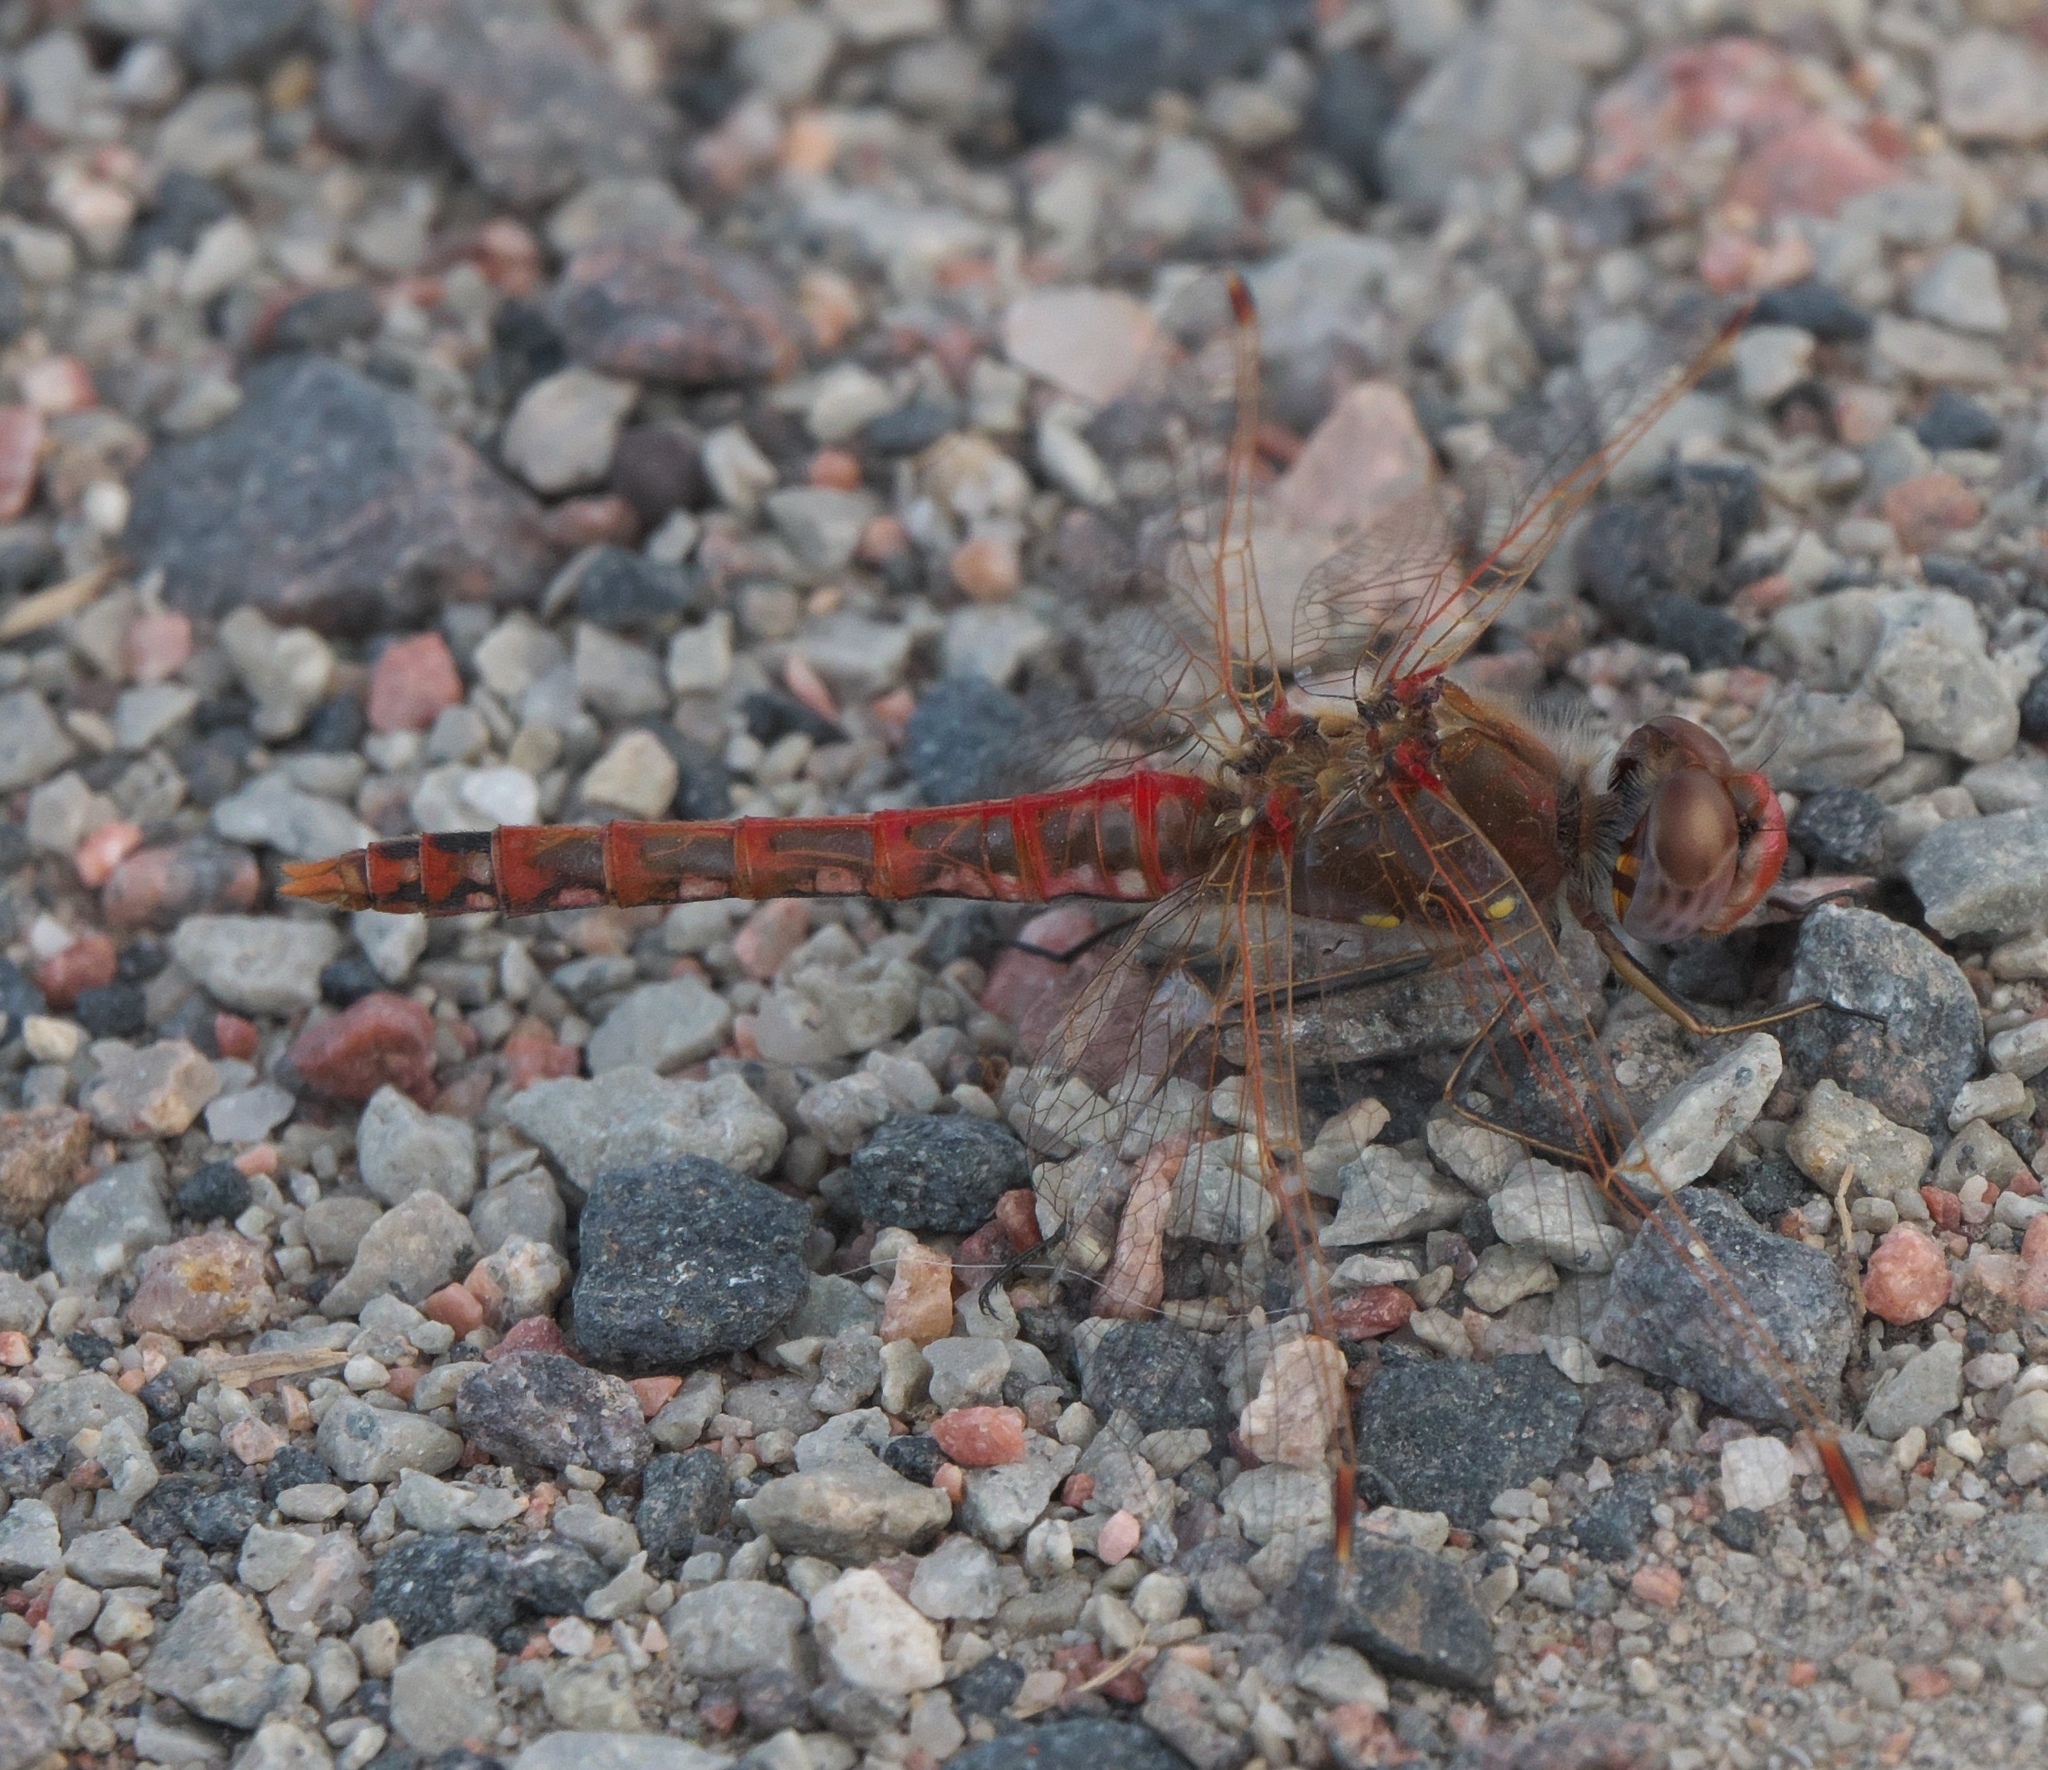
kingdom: Animalia
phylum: Arthropoda
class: Insecta
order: Odonata
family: Libellulidae
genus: Sympetrum
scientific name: Sympetrum corruptum
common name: Variegated meadowhawk
